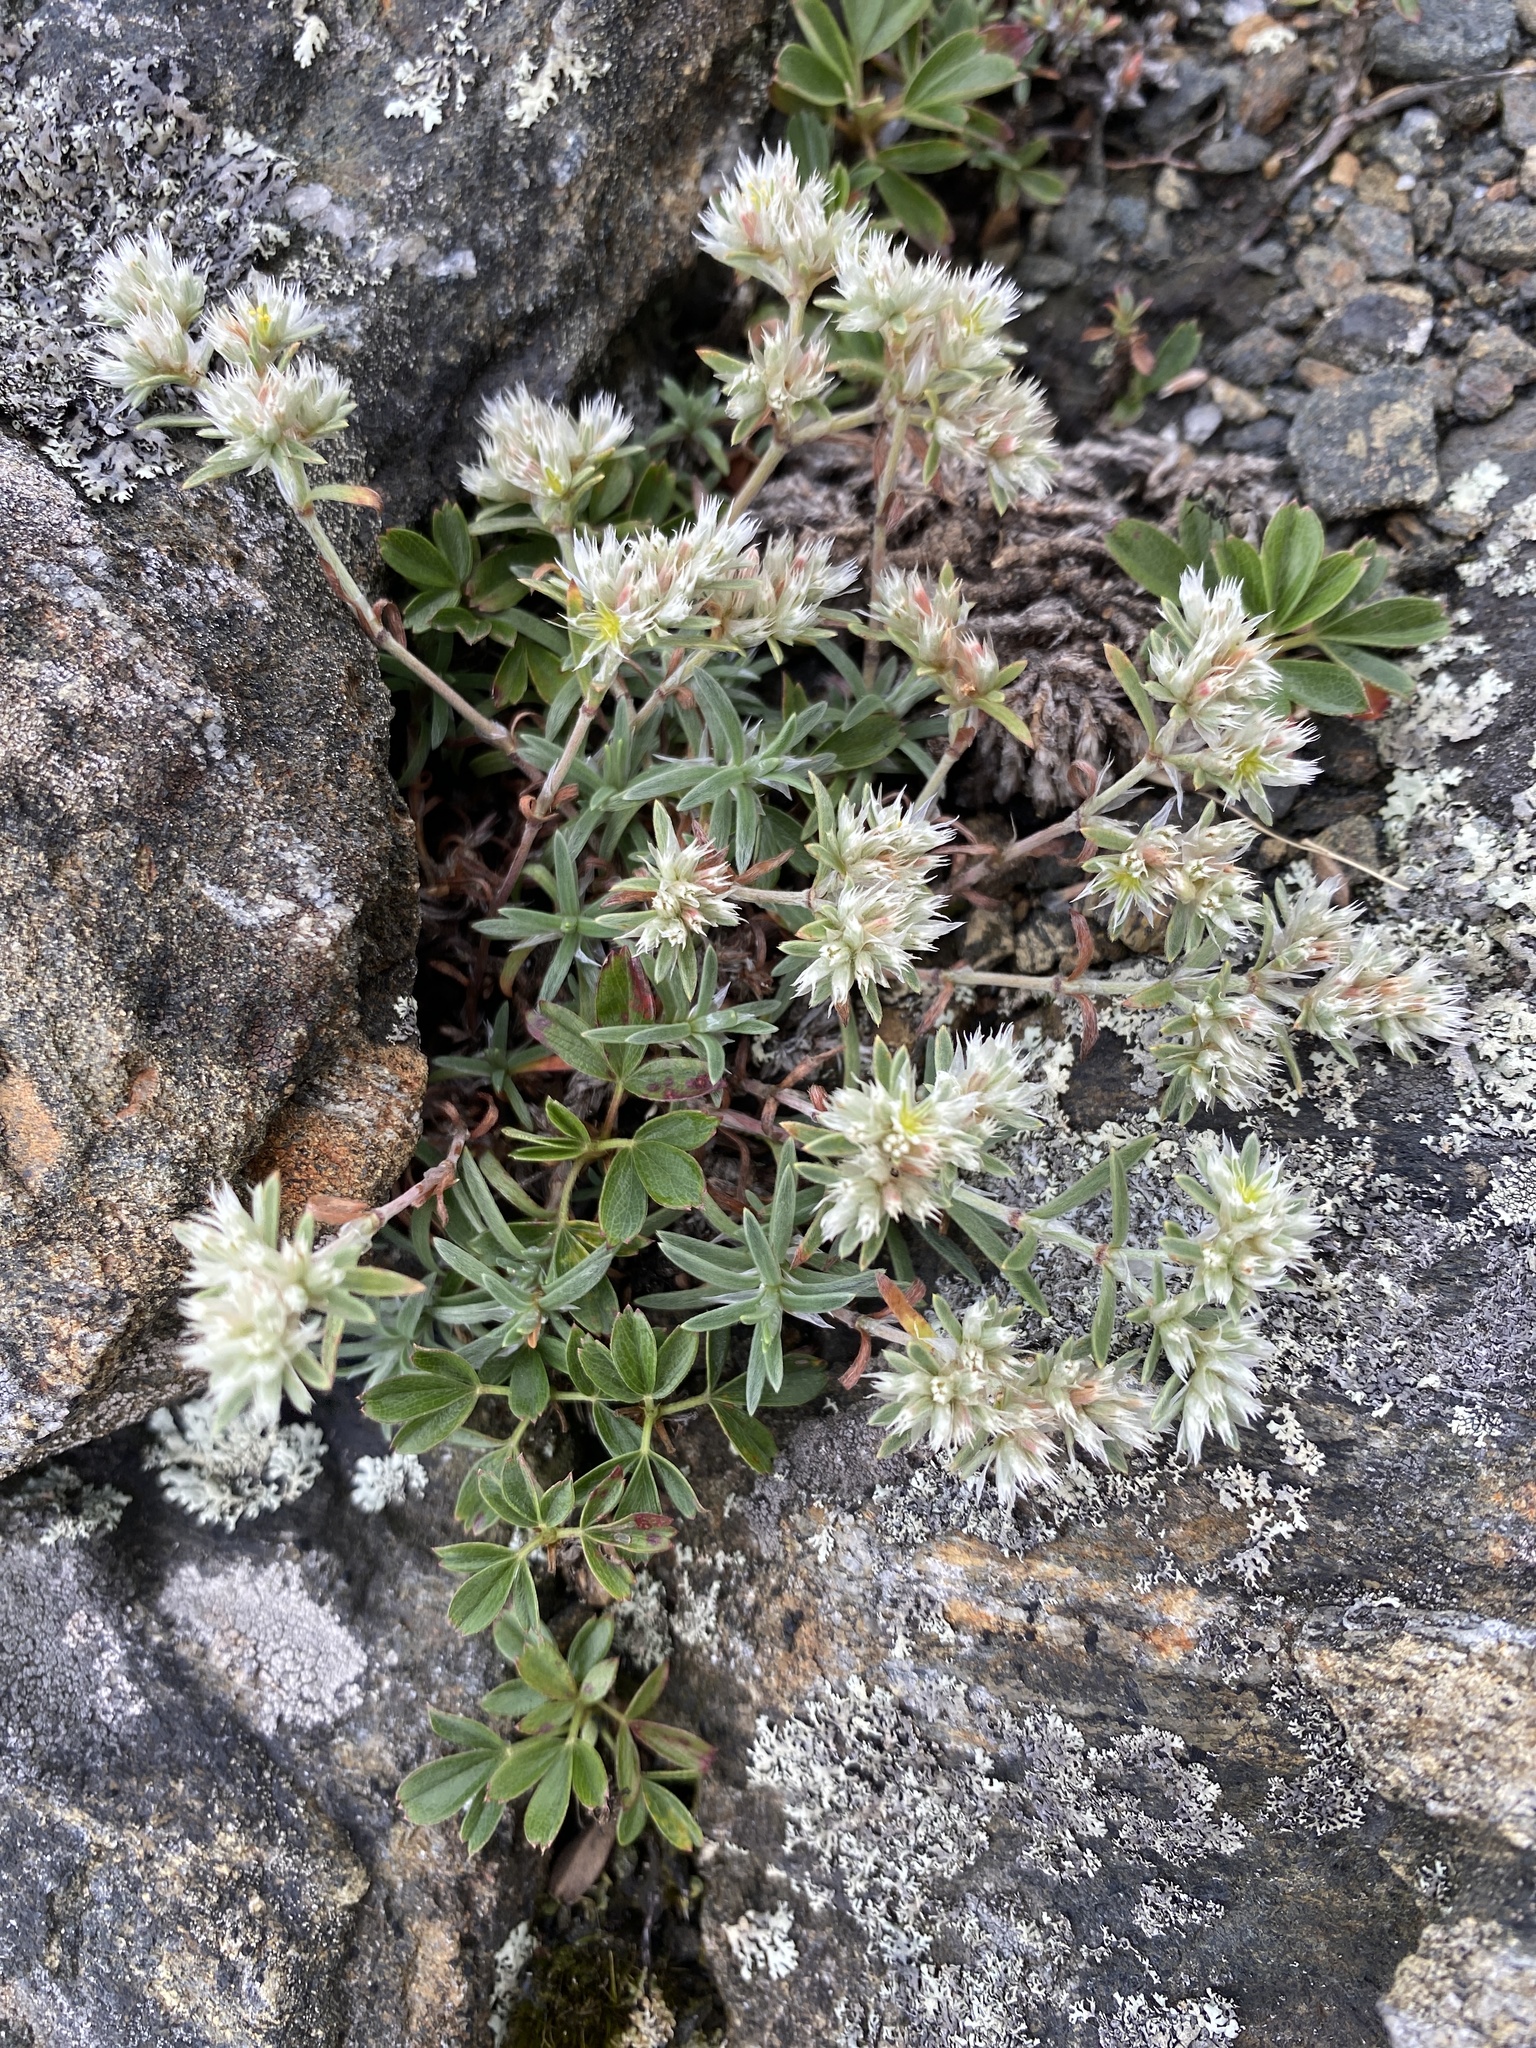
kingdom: Plantae
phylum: Tracheophyta
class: Magnoliopsida
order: Caryophyllales
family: Caryophyllaceae
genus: Paronychia
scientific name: Paronychia argyrocoma
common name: Silverling
